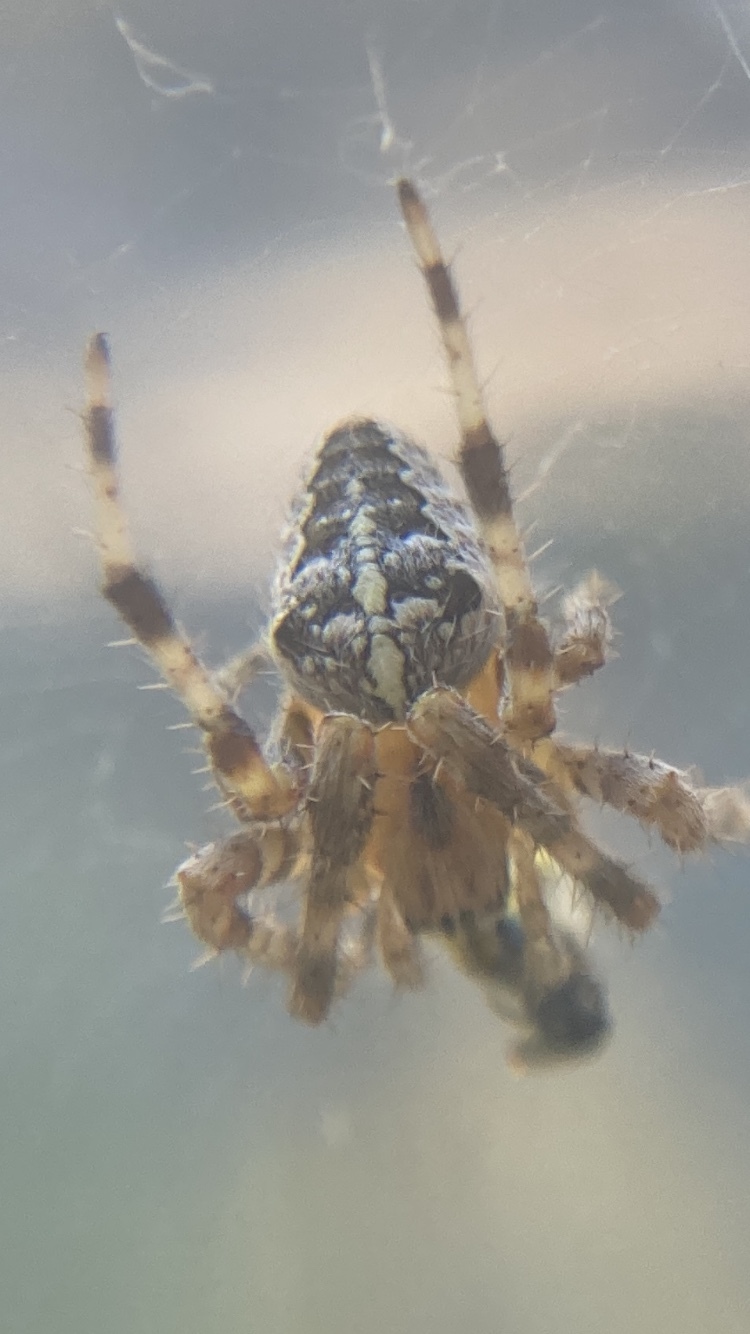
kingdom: Animalia
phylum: Arthropoda
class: Arachnida
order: Araneae
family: Araneidae
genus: Araneus
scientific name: Araneus diadematus
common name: Cross orbweaver
